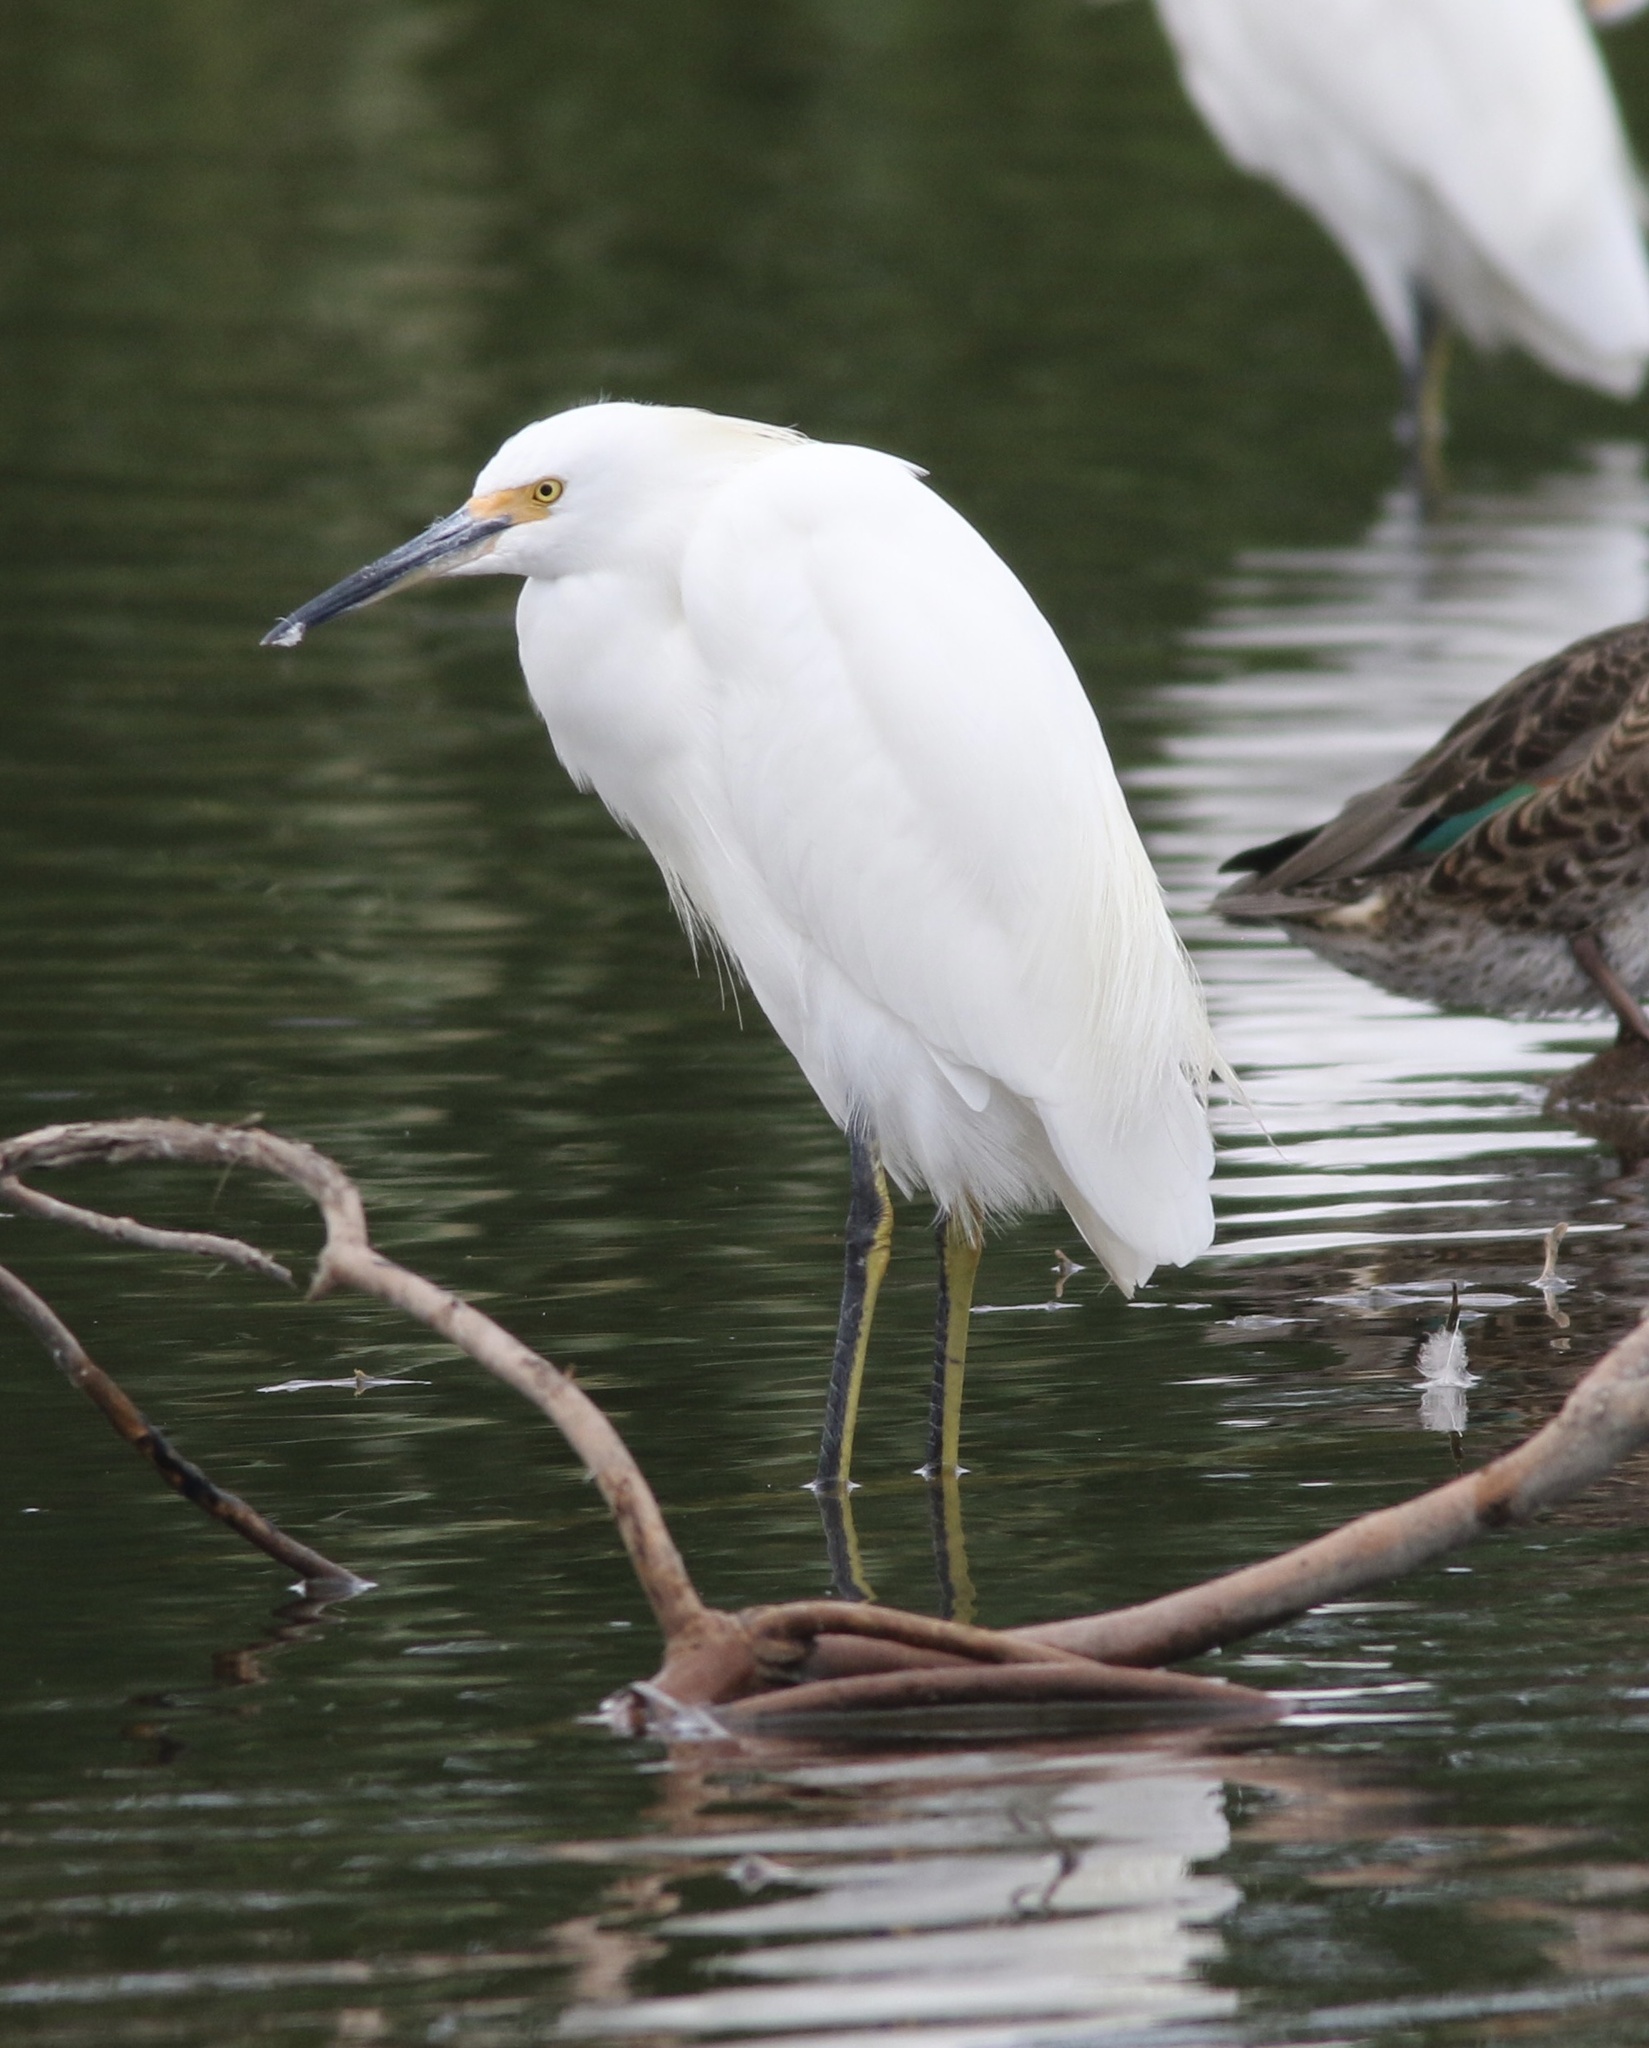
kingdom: Animalia
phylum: Chordata
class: Aves
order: Pelecaniformes
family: Ardeidae
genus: Egretta
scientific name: Egretta thula
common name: Snowy egret
